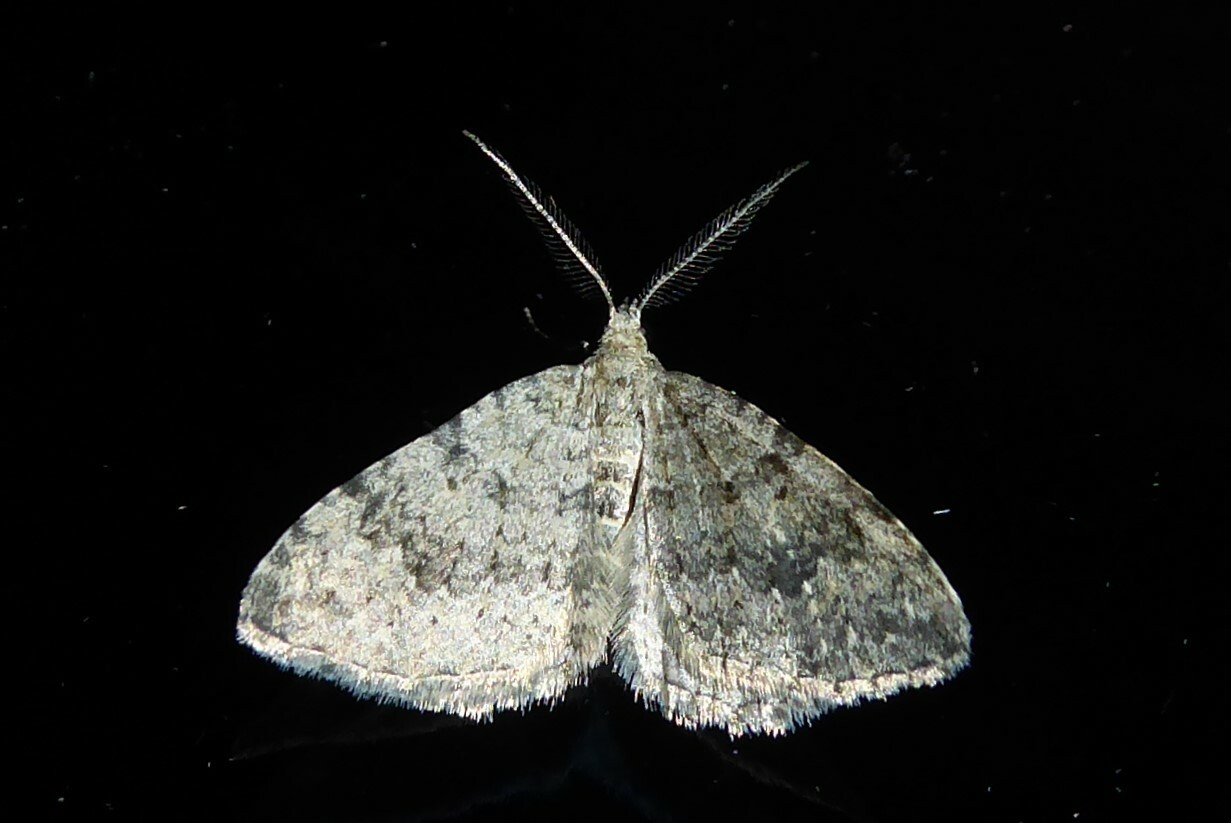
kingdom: Animalia
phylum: Arthropoda
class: Insecta
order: Lepidoptera
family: Geometridae
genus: Helastia
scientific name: Helastia corcularia
